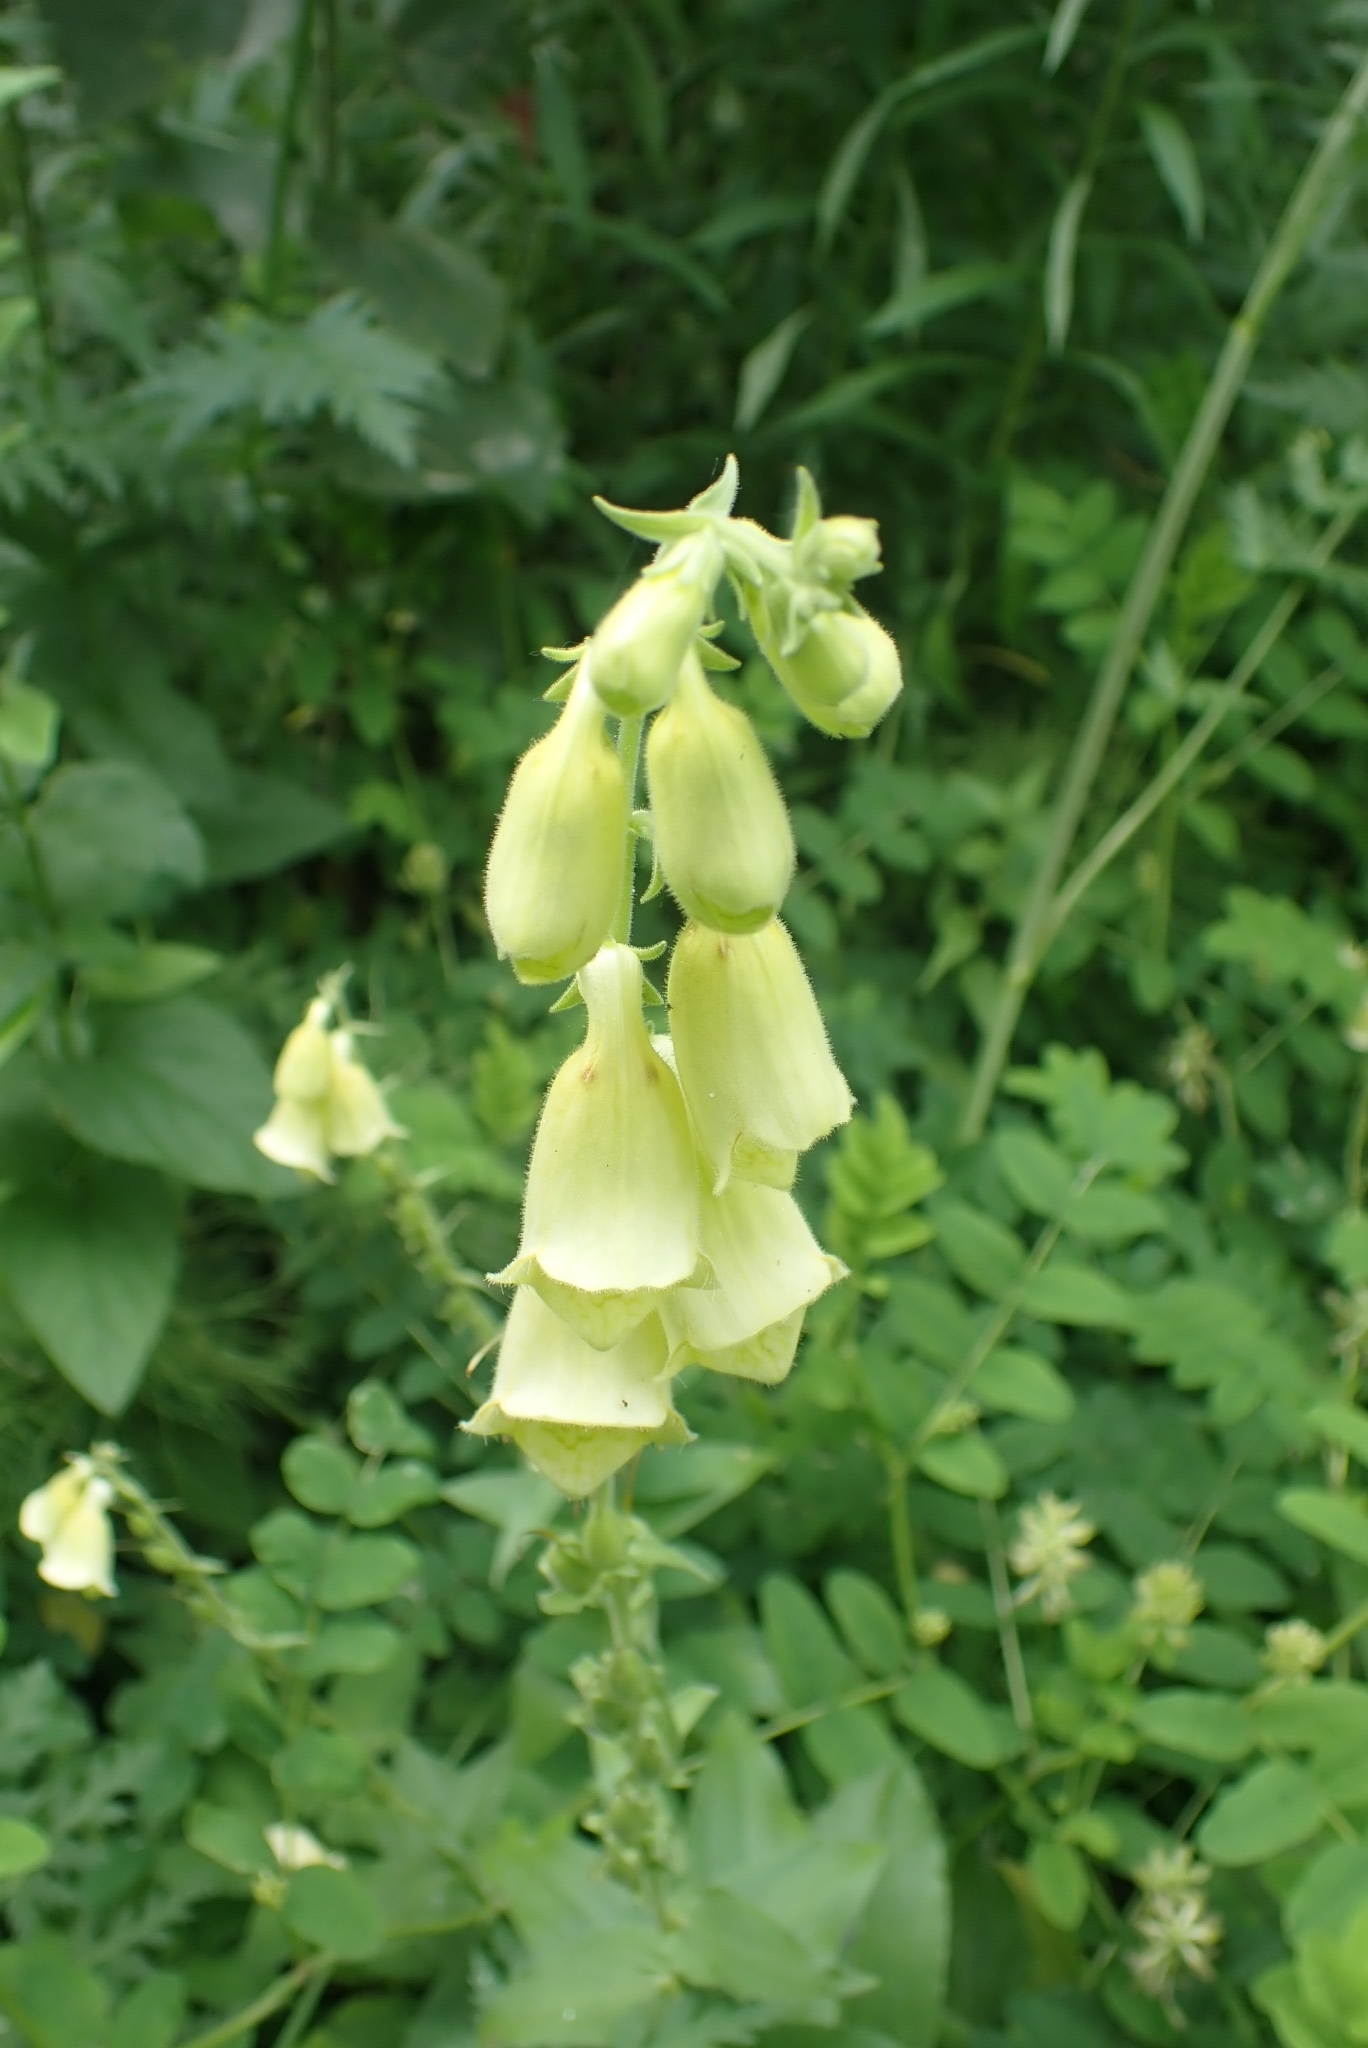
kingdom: Plantae
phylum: Tracheophyta
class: Magnoliopsida
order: Lamiales
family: Plantaginaceae
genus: Digitalis
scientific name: Digitalis grandiflora
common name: Yellow foxglove
